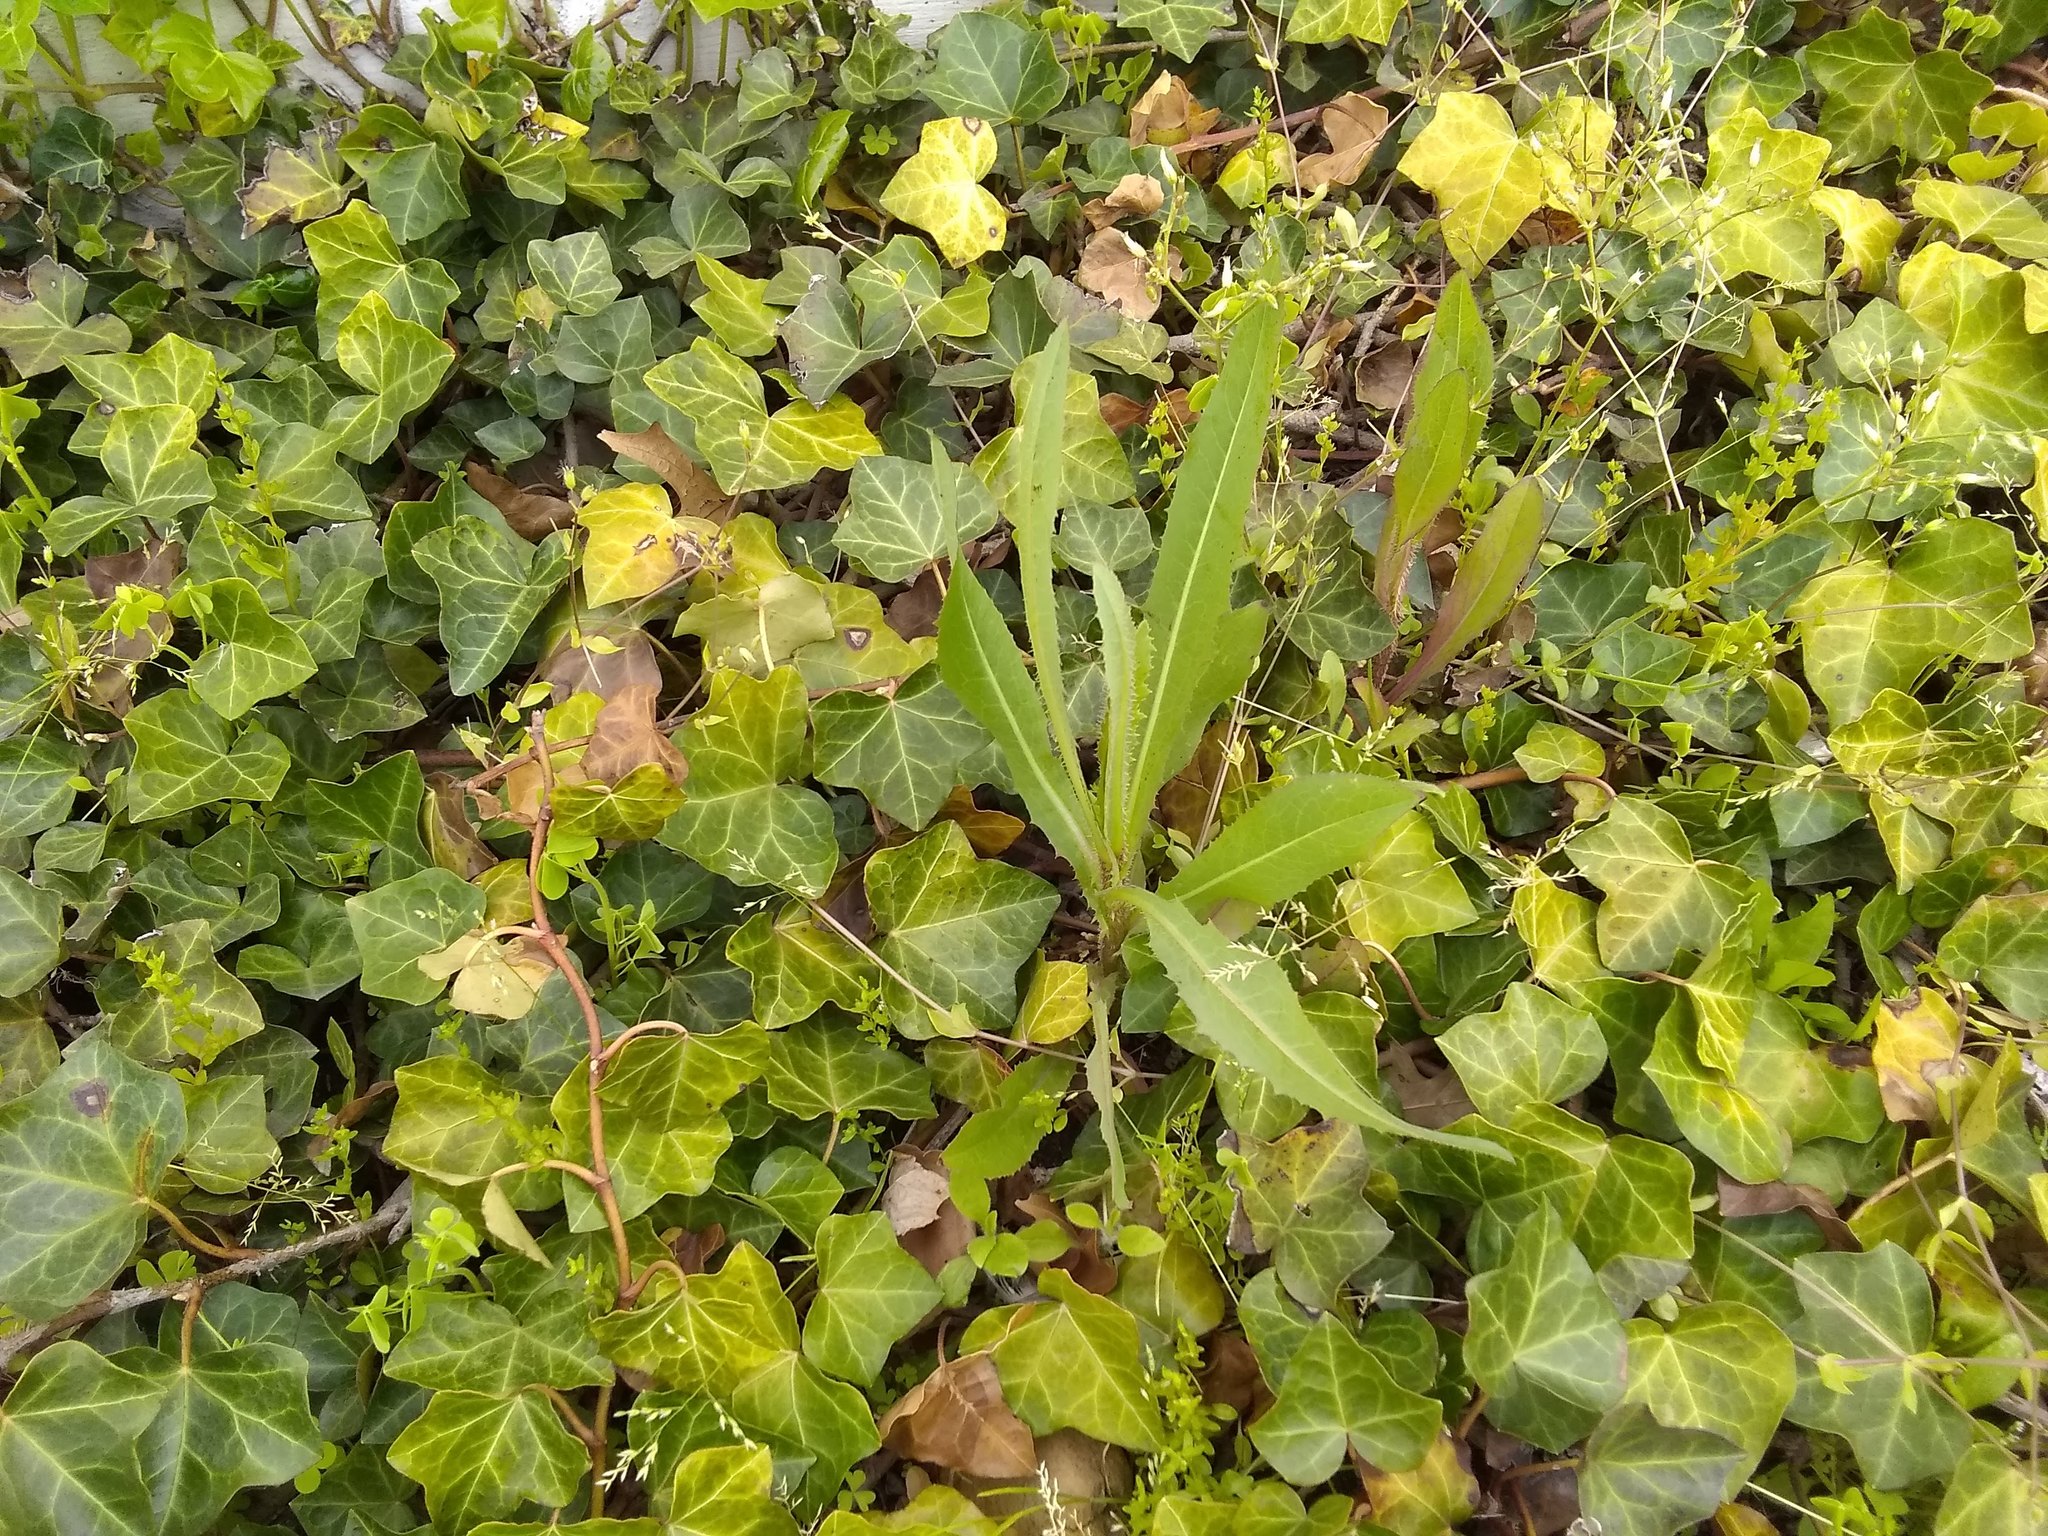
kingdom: Plantae
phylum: Tracheophyta
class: Magnoliopsida
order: Asterales
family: Asteraceae
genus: Lactuca
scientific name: Lactuca serriola
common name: Prickly lettuce
